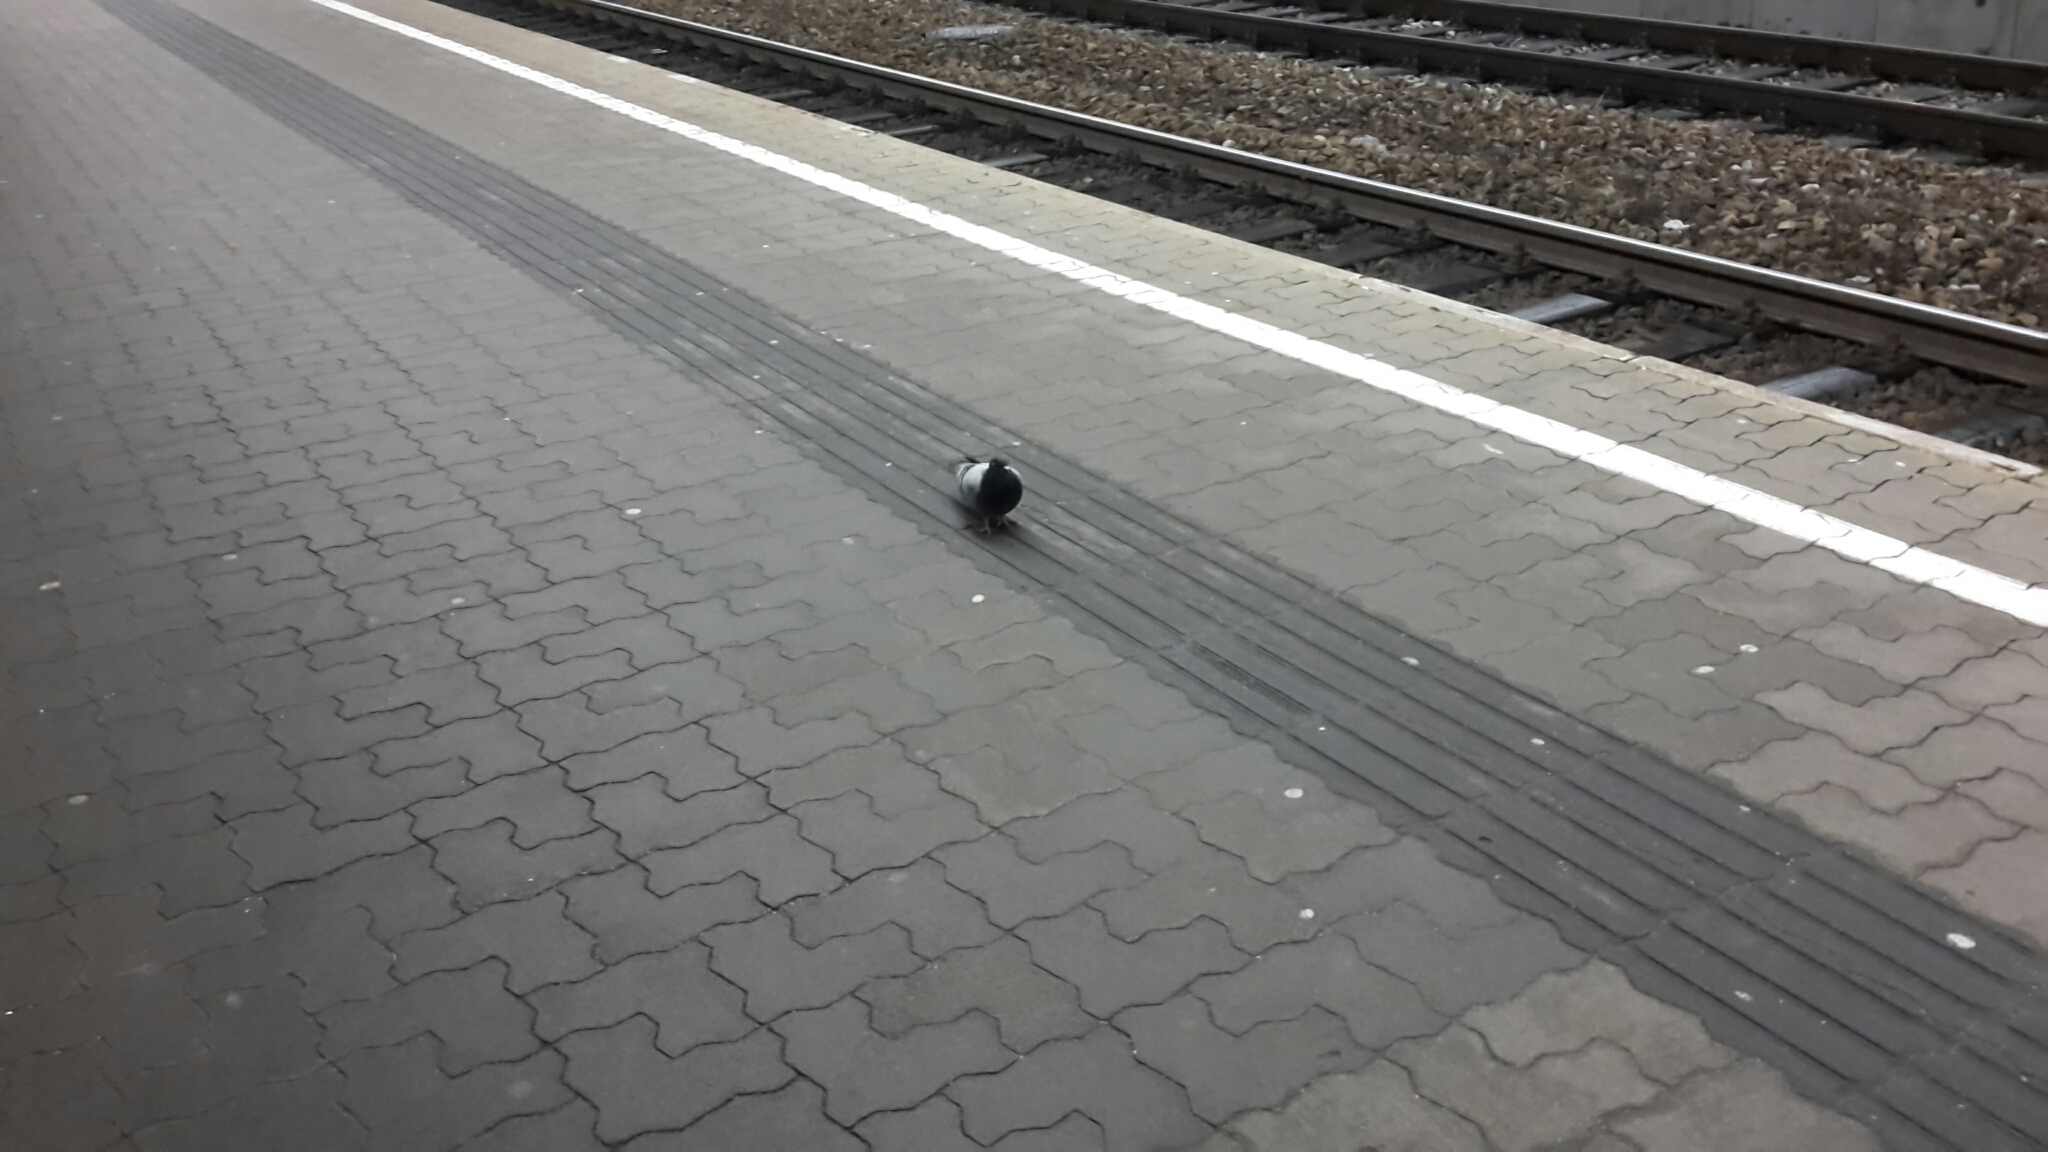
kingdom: Animalia
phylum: Chordata
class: Aves
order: Columbiformes
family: Columbidae
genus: Columba
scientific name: Columba livia
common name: Rock pigeon
